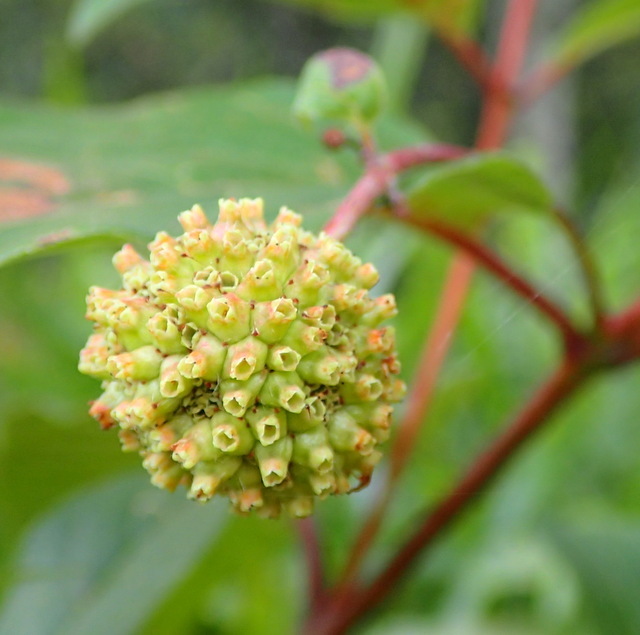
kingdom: Plantae
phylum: Tracheophyta
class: Magnoliopsida
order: Gentianales
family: Rubiaceae
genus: Cephalanthus
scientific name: Cephalanthus occidentalis
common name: Button-willow
